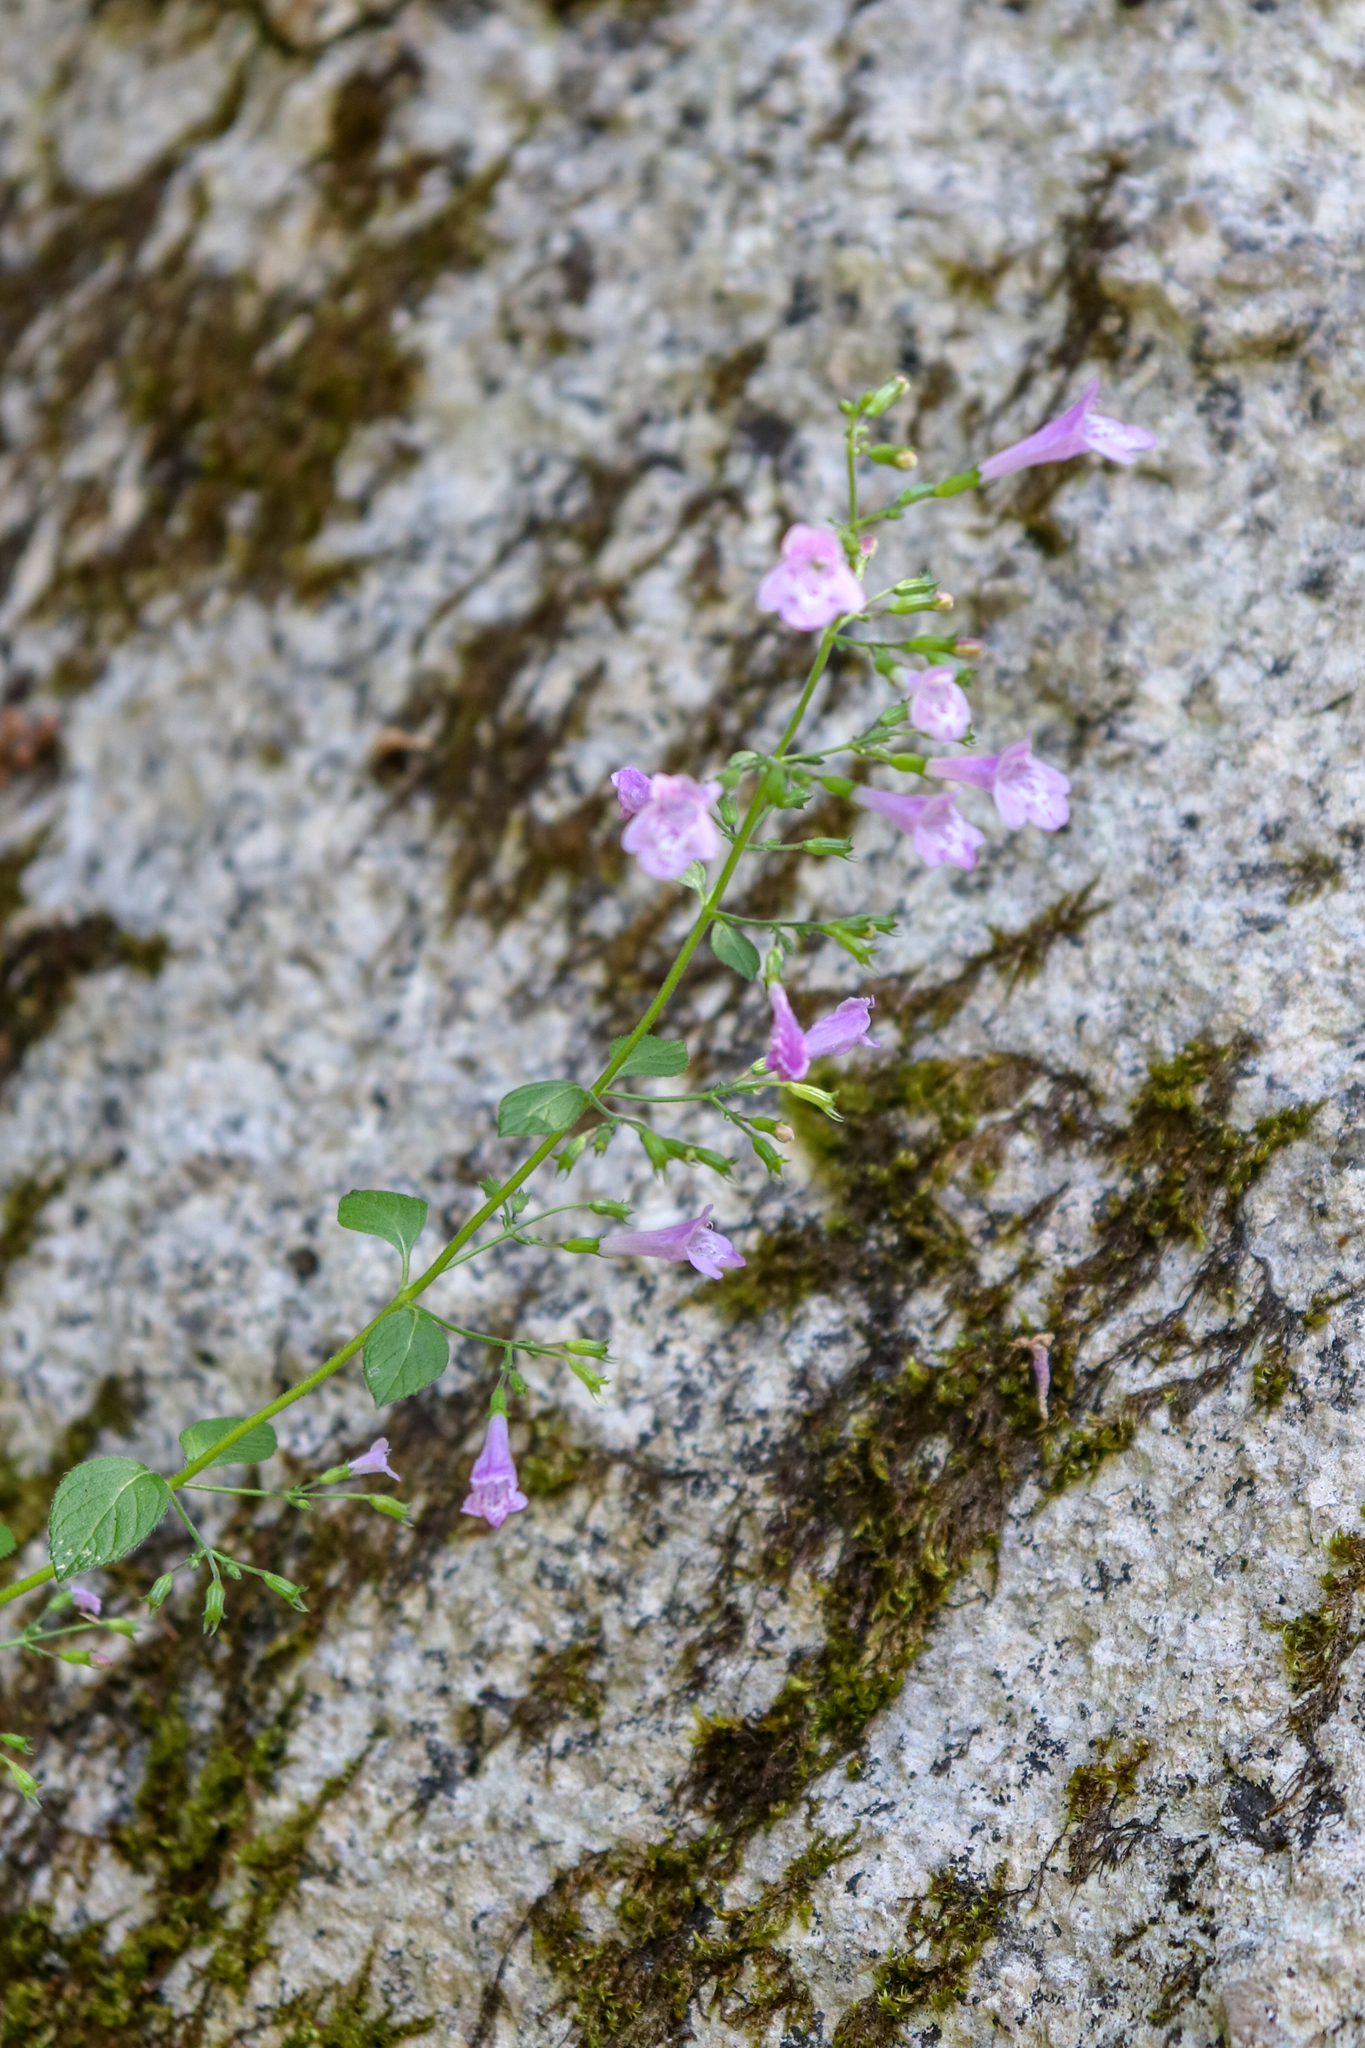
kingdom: Plantae
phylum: Tracheophyta
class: Magnoliopsida
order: Lamiales
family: Lamiaceae
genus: Clinopodium
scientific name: Clinopodium nepeta
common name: Lesser calamint
